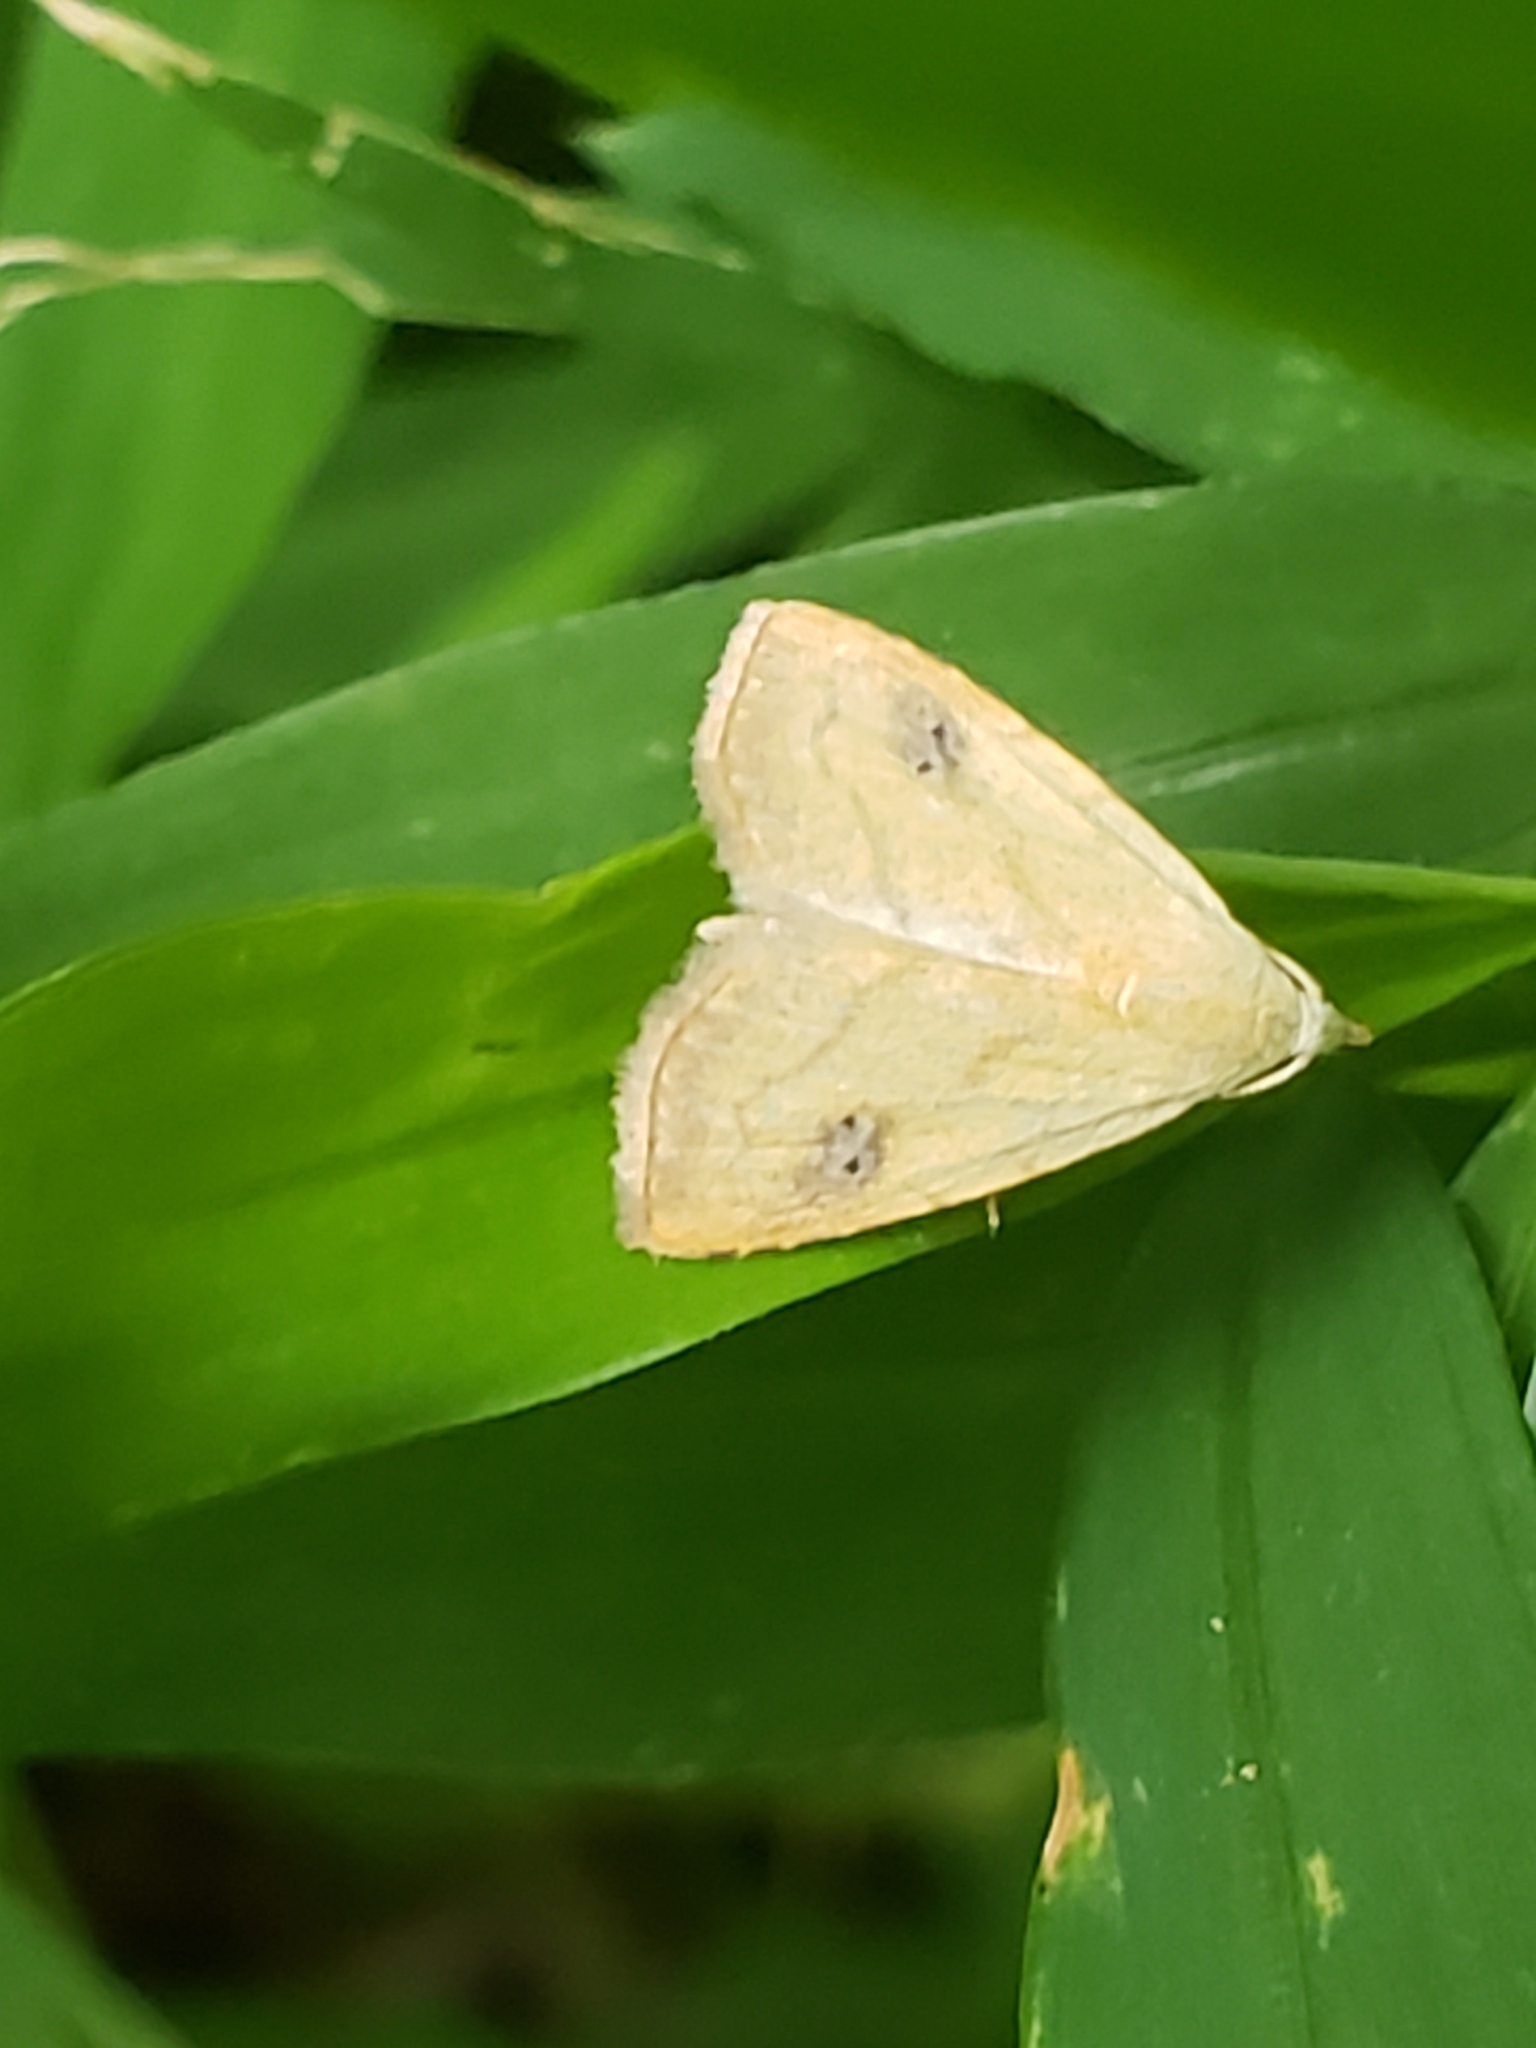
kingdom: Animalia
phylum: Arthropoda
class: Insecta
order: Lepidoptera
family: Erebidae
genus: Rivula
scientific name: Rivula propinqualis
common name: Spotted grass moth
